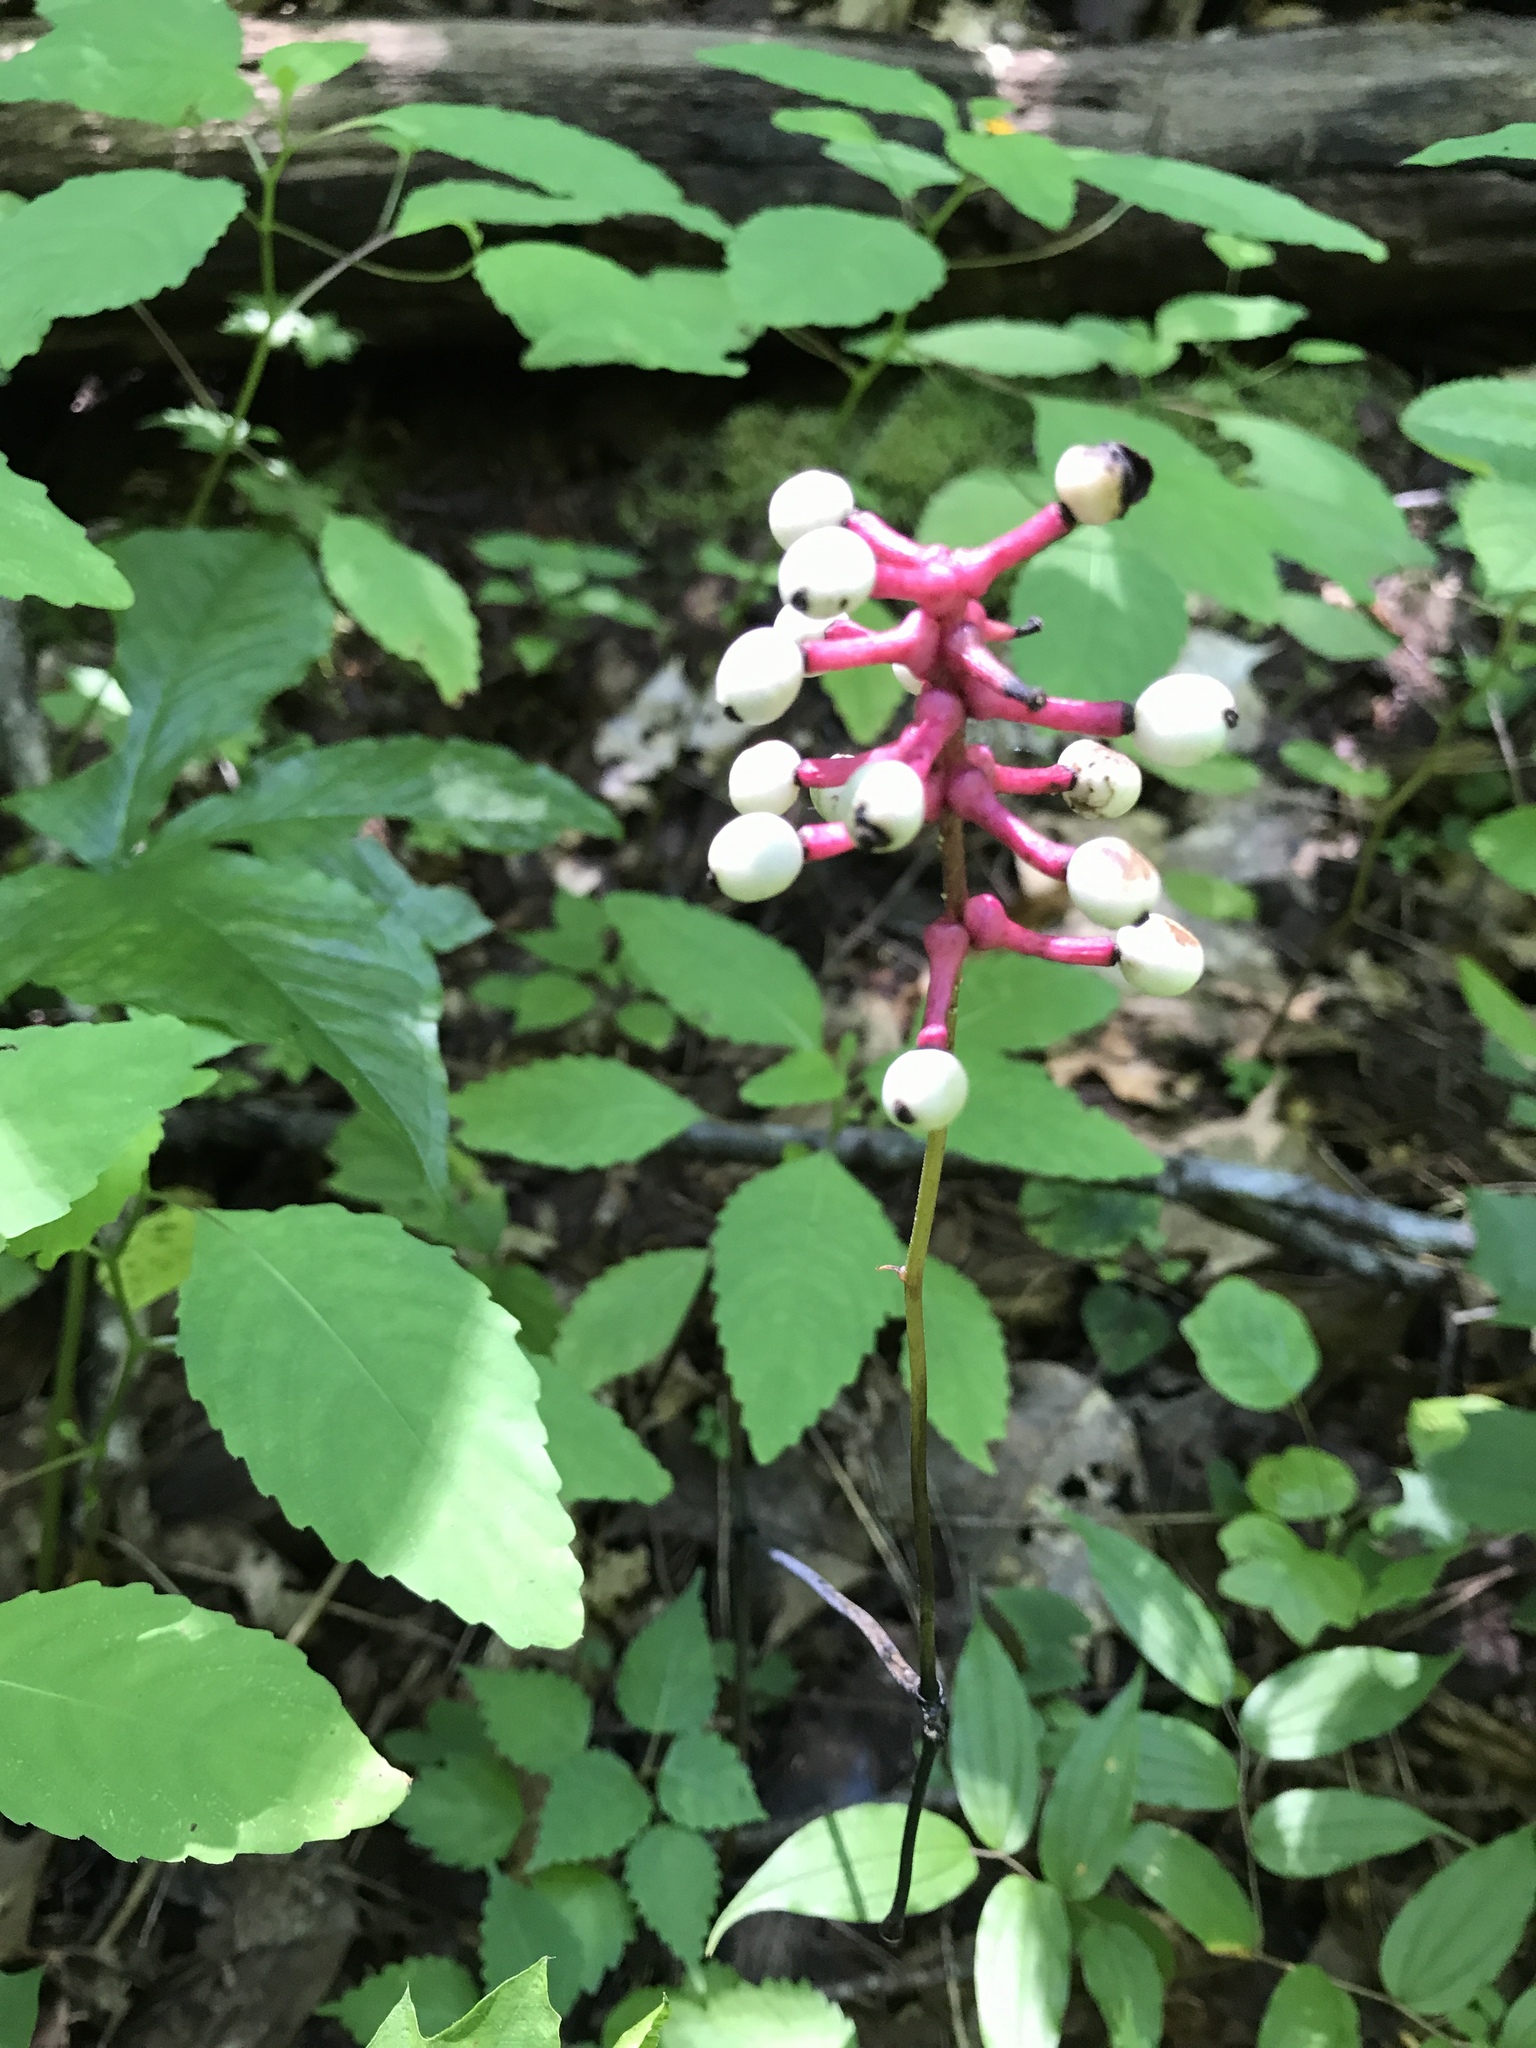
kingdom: Plantae
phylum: Tracheophyta
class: Magnoliopsida
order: Ranunculales
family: Ranunculaceae
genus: Actaea
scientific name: Actaea pachypoda
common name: Doll's-eyes
